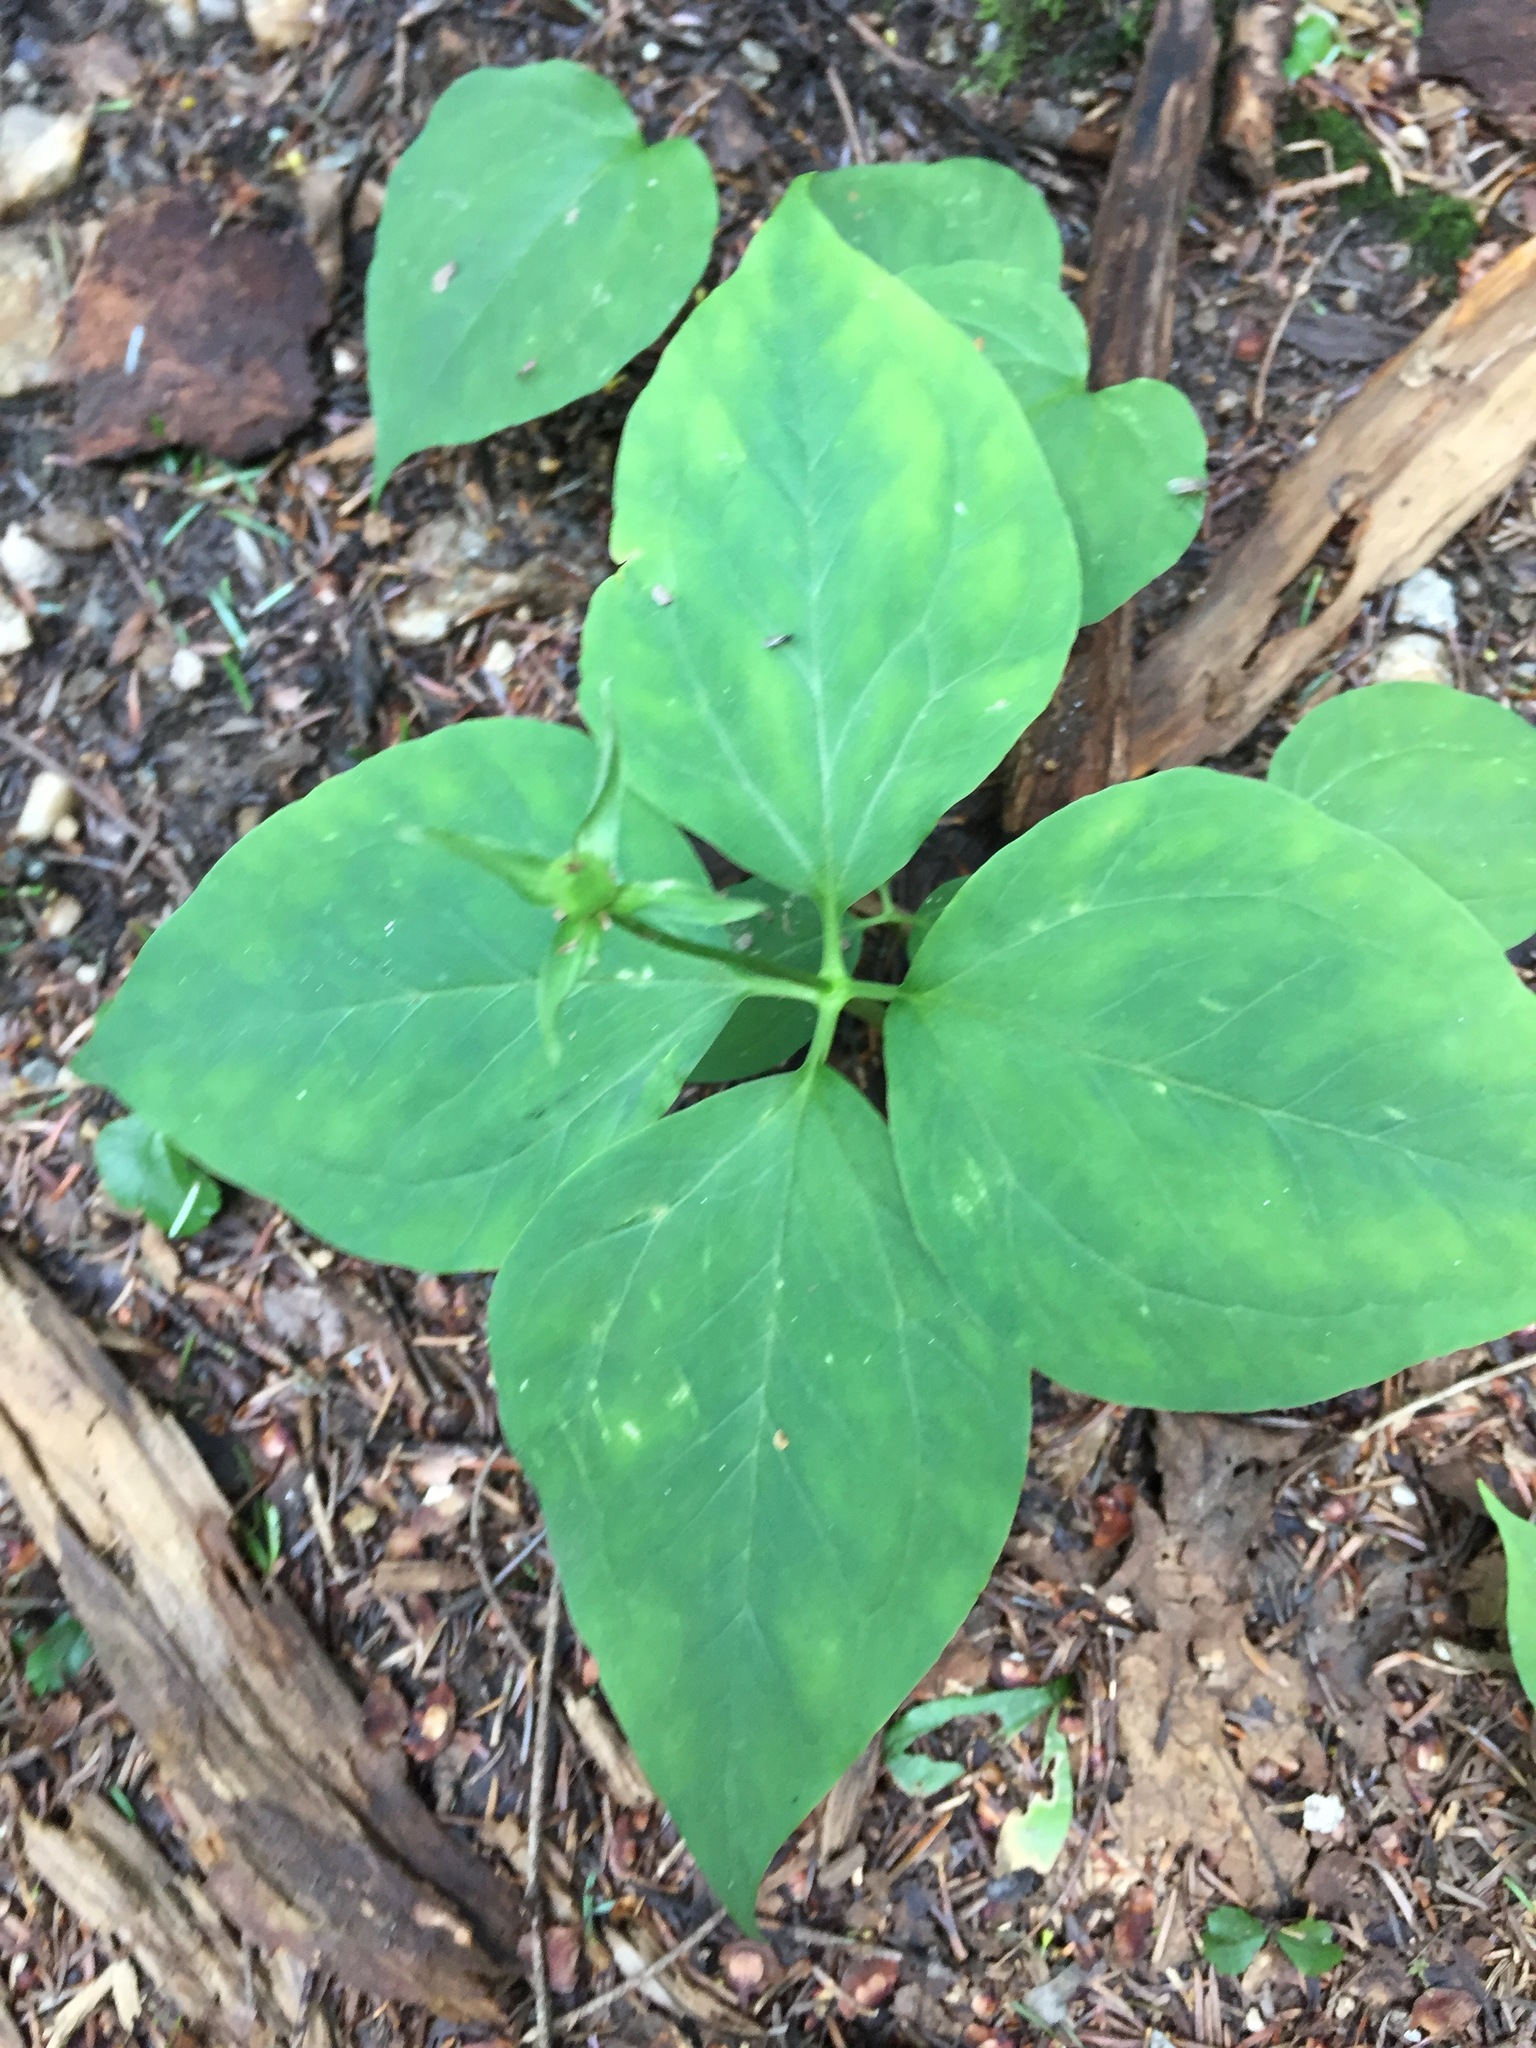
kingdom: Plantae
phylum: Tracheophyta
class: Liliopsida
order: Liliales
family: Melanthiaceae
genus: Trillium
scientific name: Trillium undulatum
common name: Paint trillium
